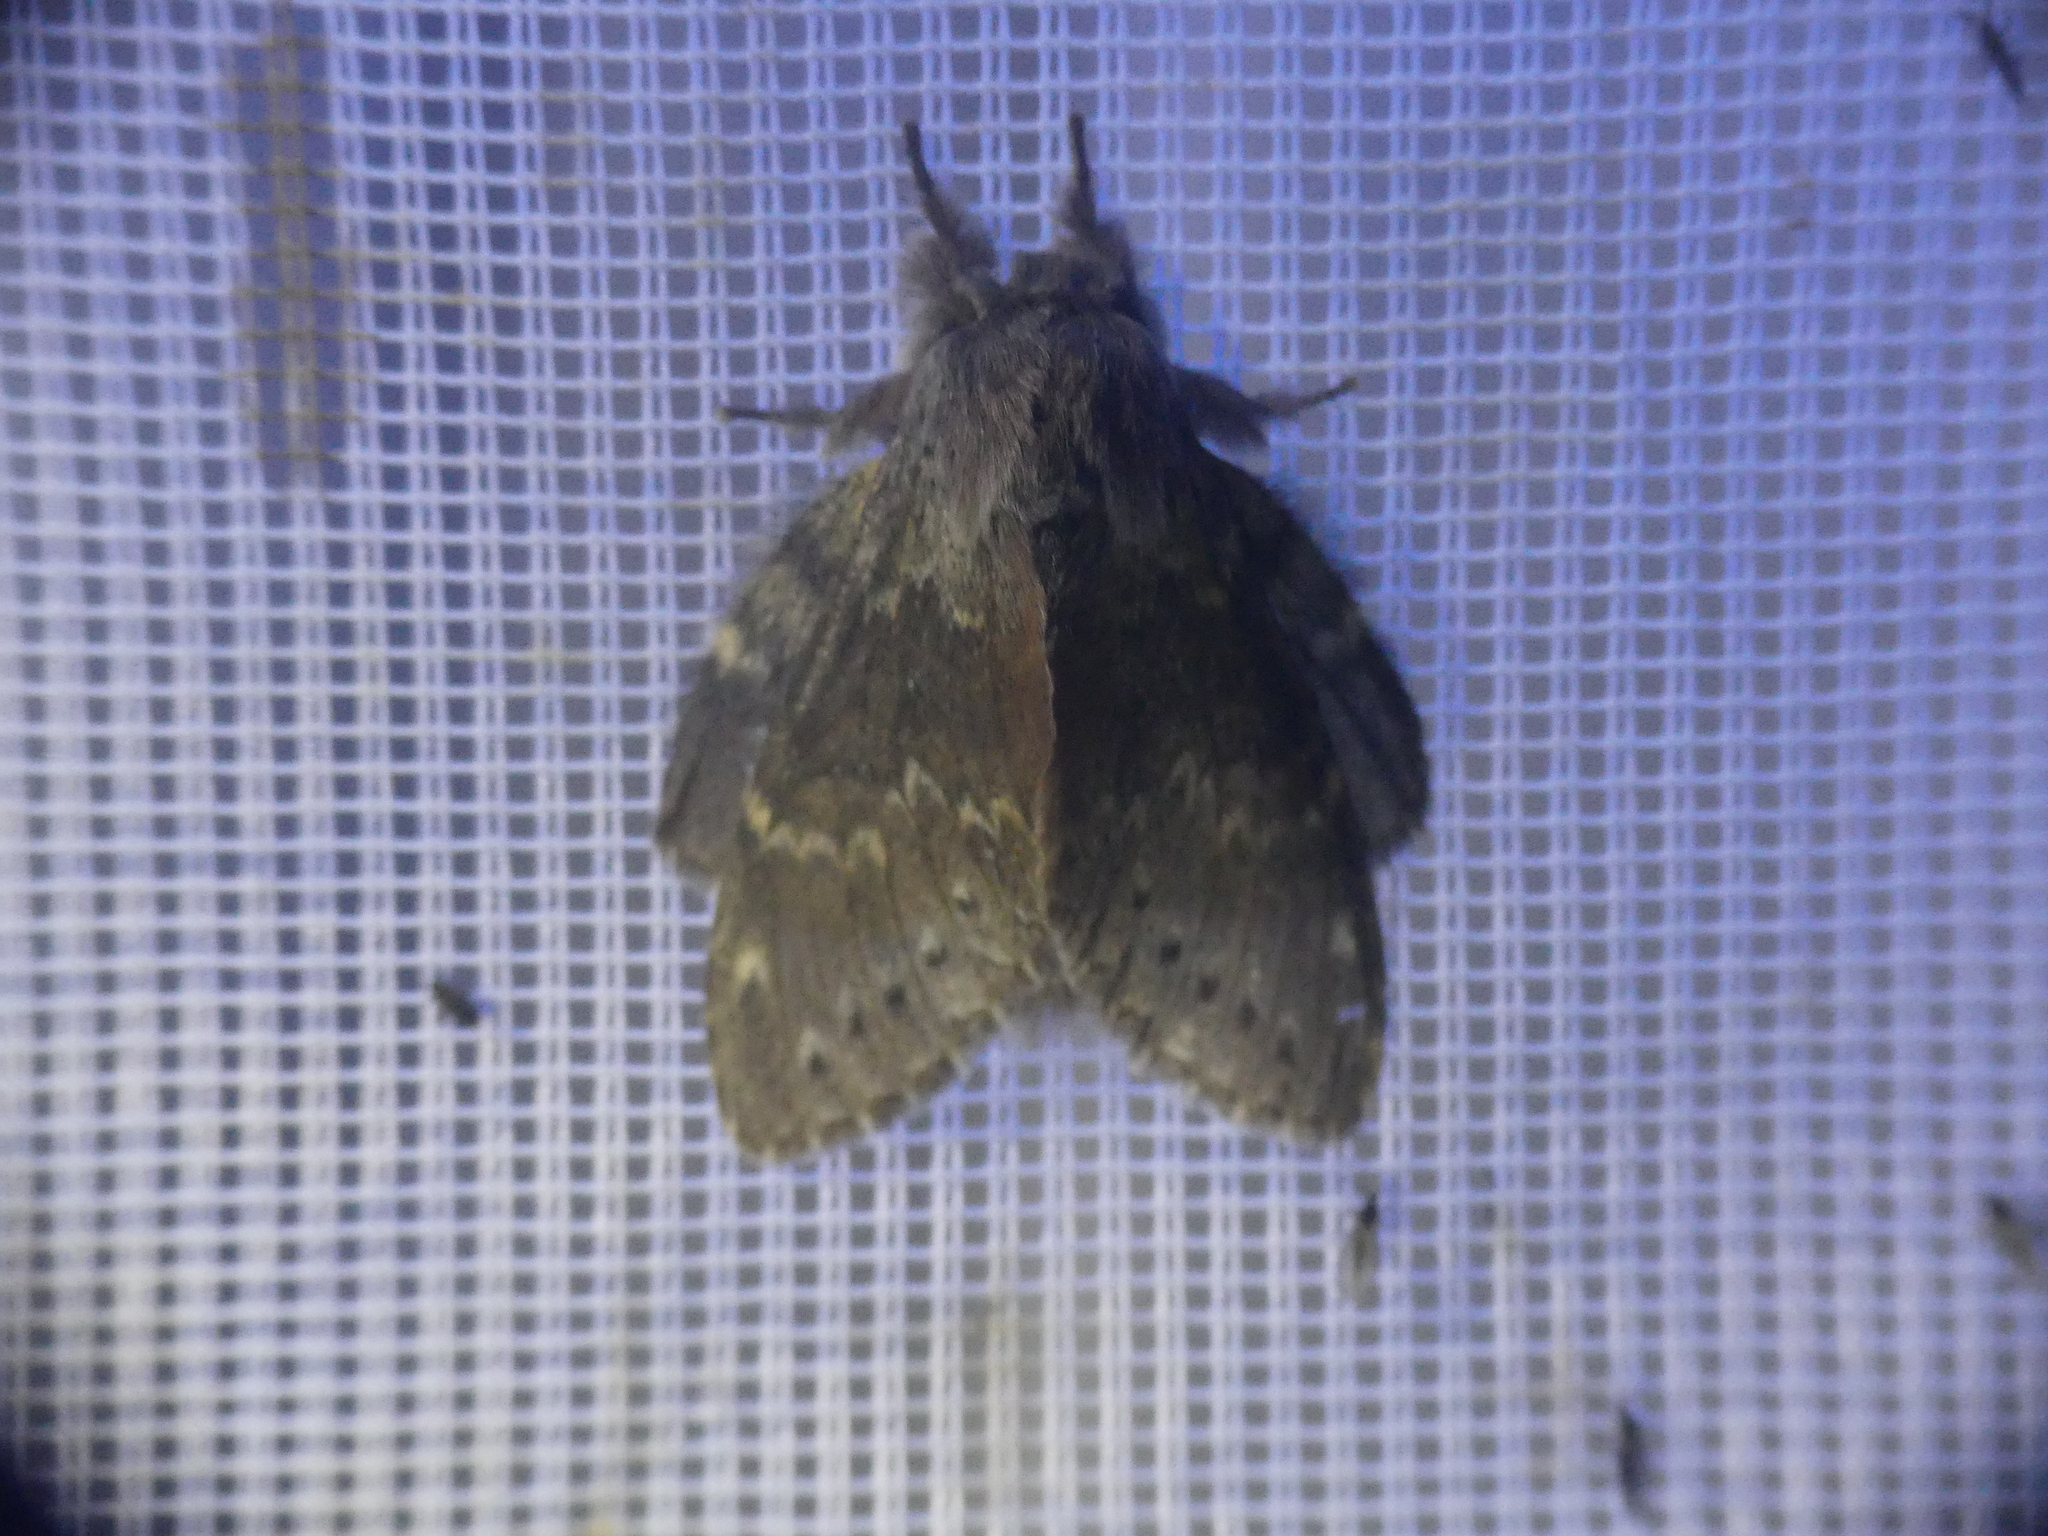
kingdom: Animalia
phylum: Arthropoda
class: Insecta
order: Lepidoptera
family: Notodontidae
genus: Stauropus
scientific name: Stauropus fagi
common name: Lobster moth
